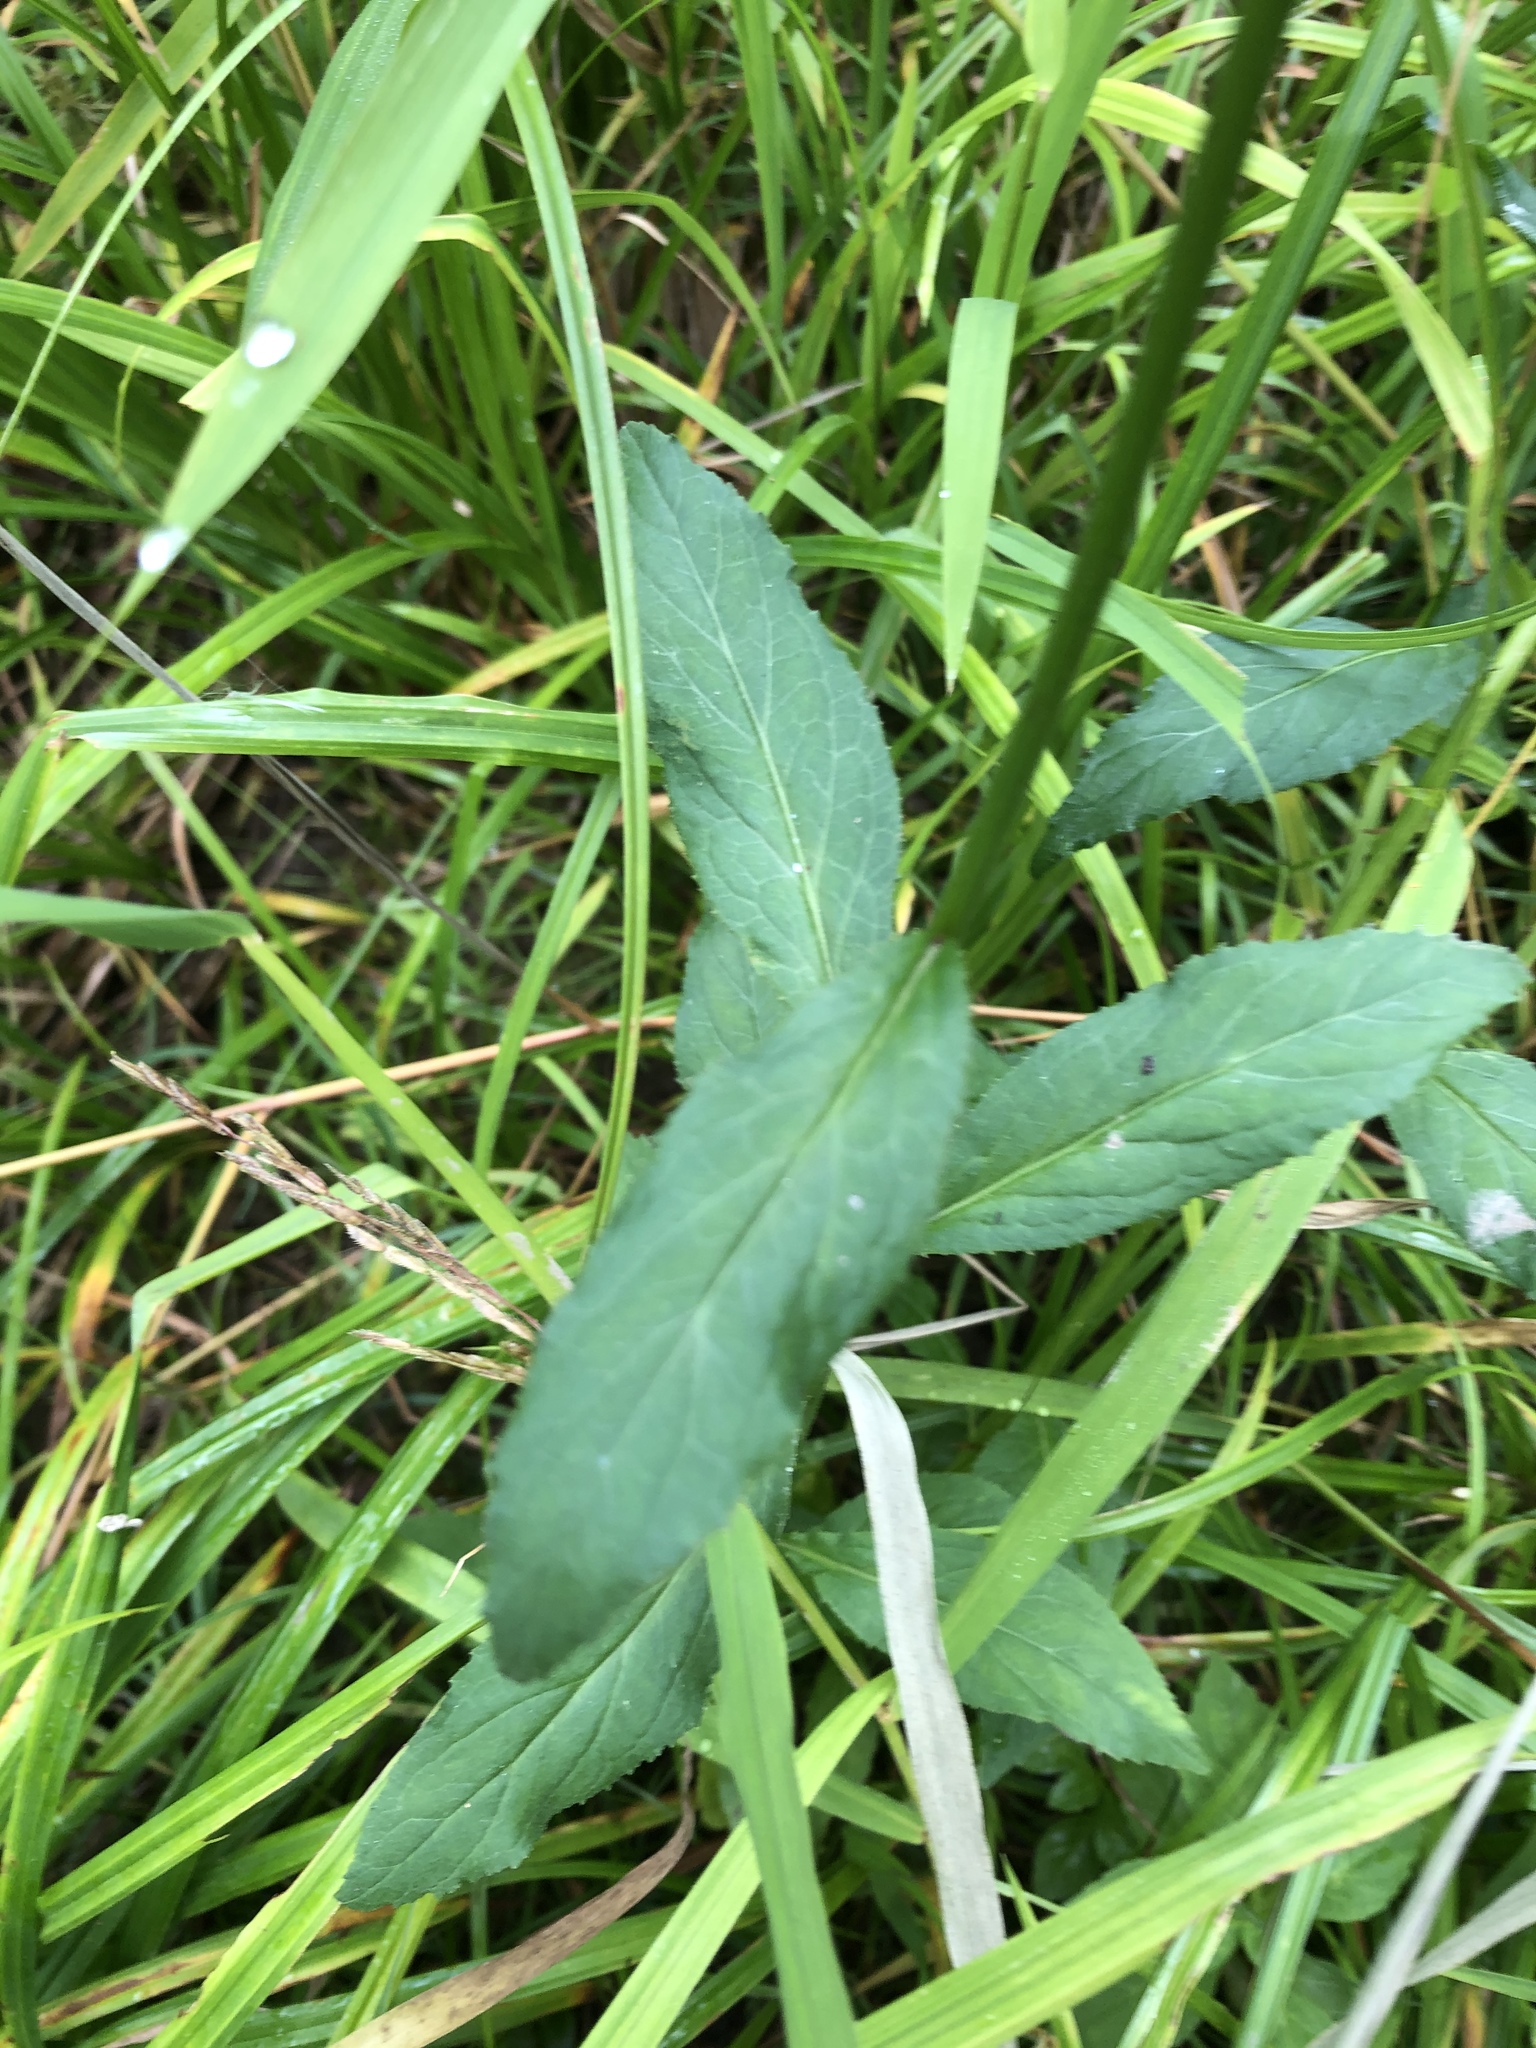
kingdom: Plantae
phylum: Tracheophyta
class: Magnoliopsida
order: Asterales
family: Campanulaceae
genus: Lobelia
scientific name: Lobelia cardinalis
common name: Cardinal flower
